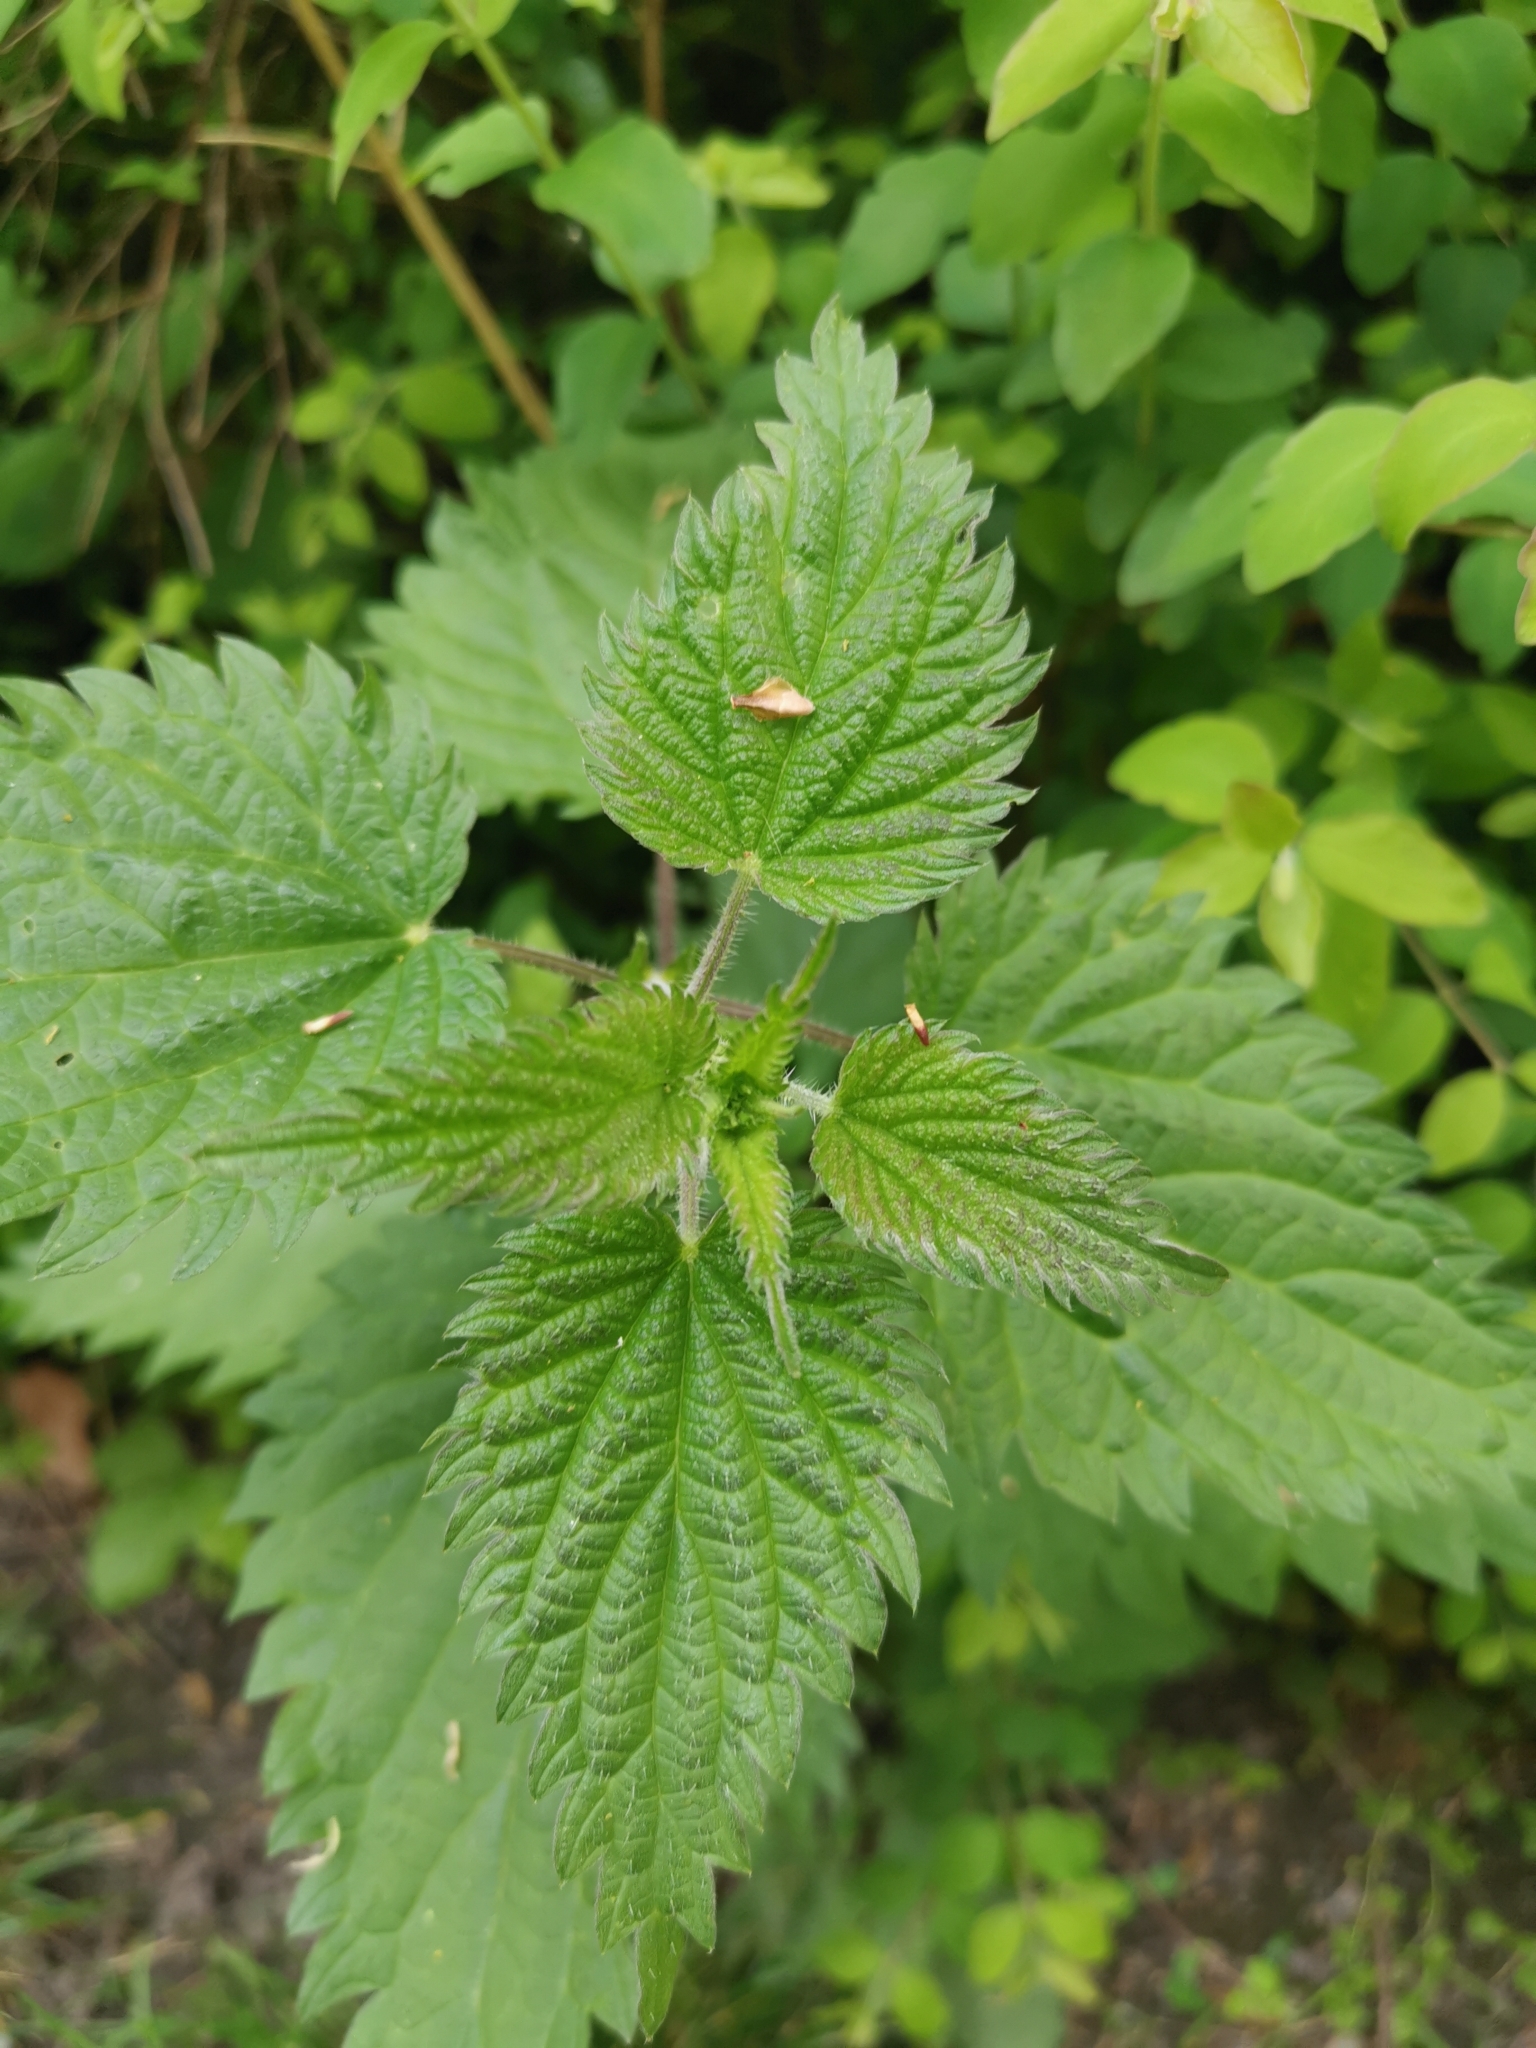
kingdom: Plantae
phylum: Tracheophyta
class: Magnoliopsida
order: Rosales
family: Urticaceae
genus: Urtica
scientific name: Urtica dioica
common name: Common nettle
